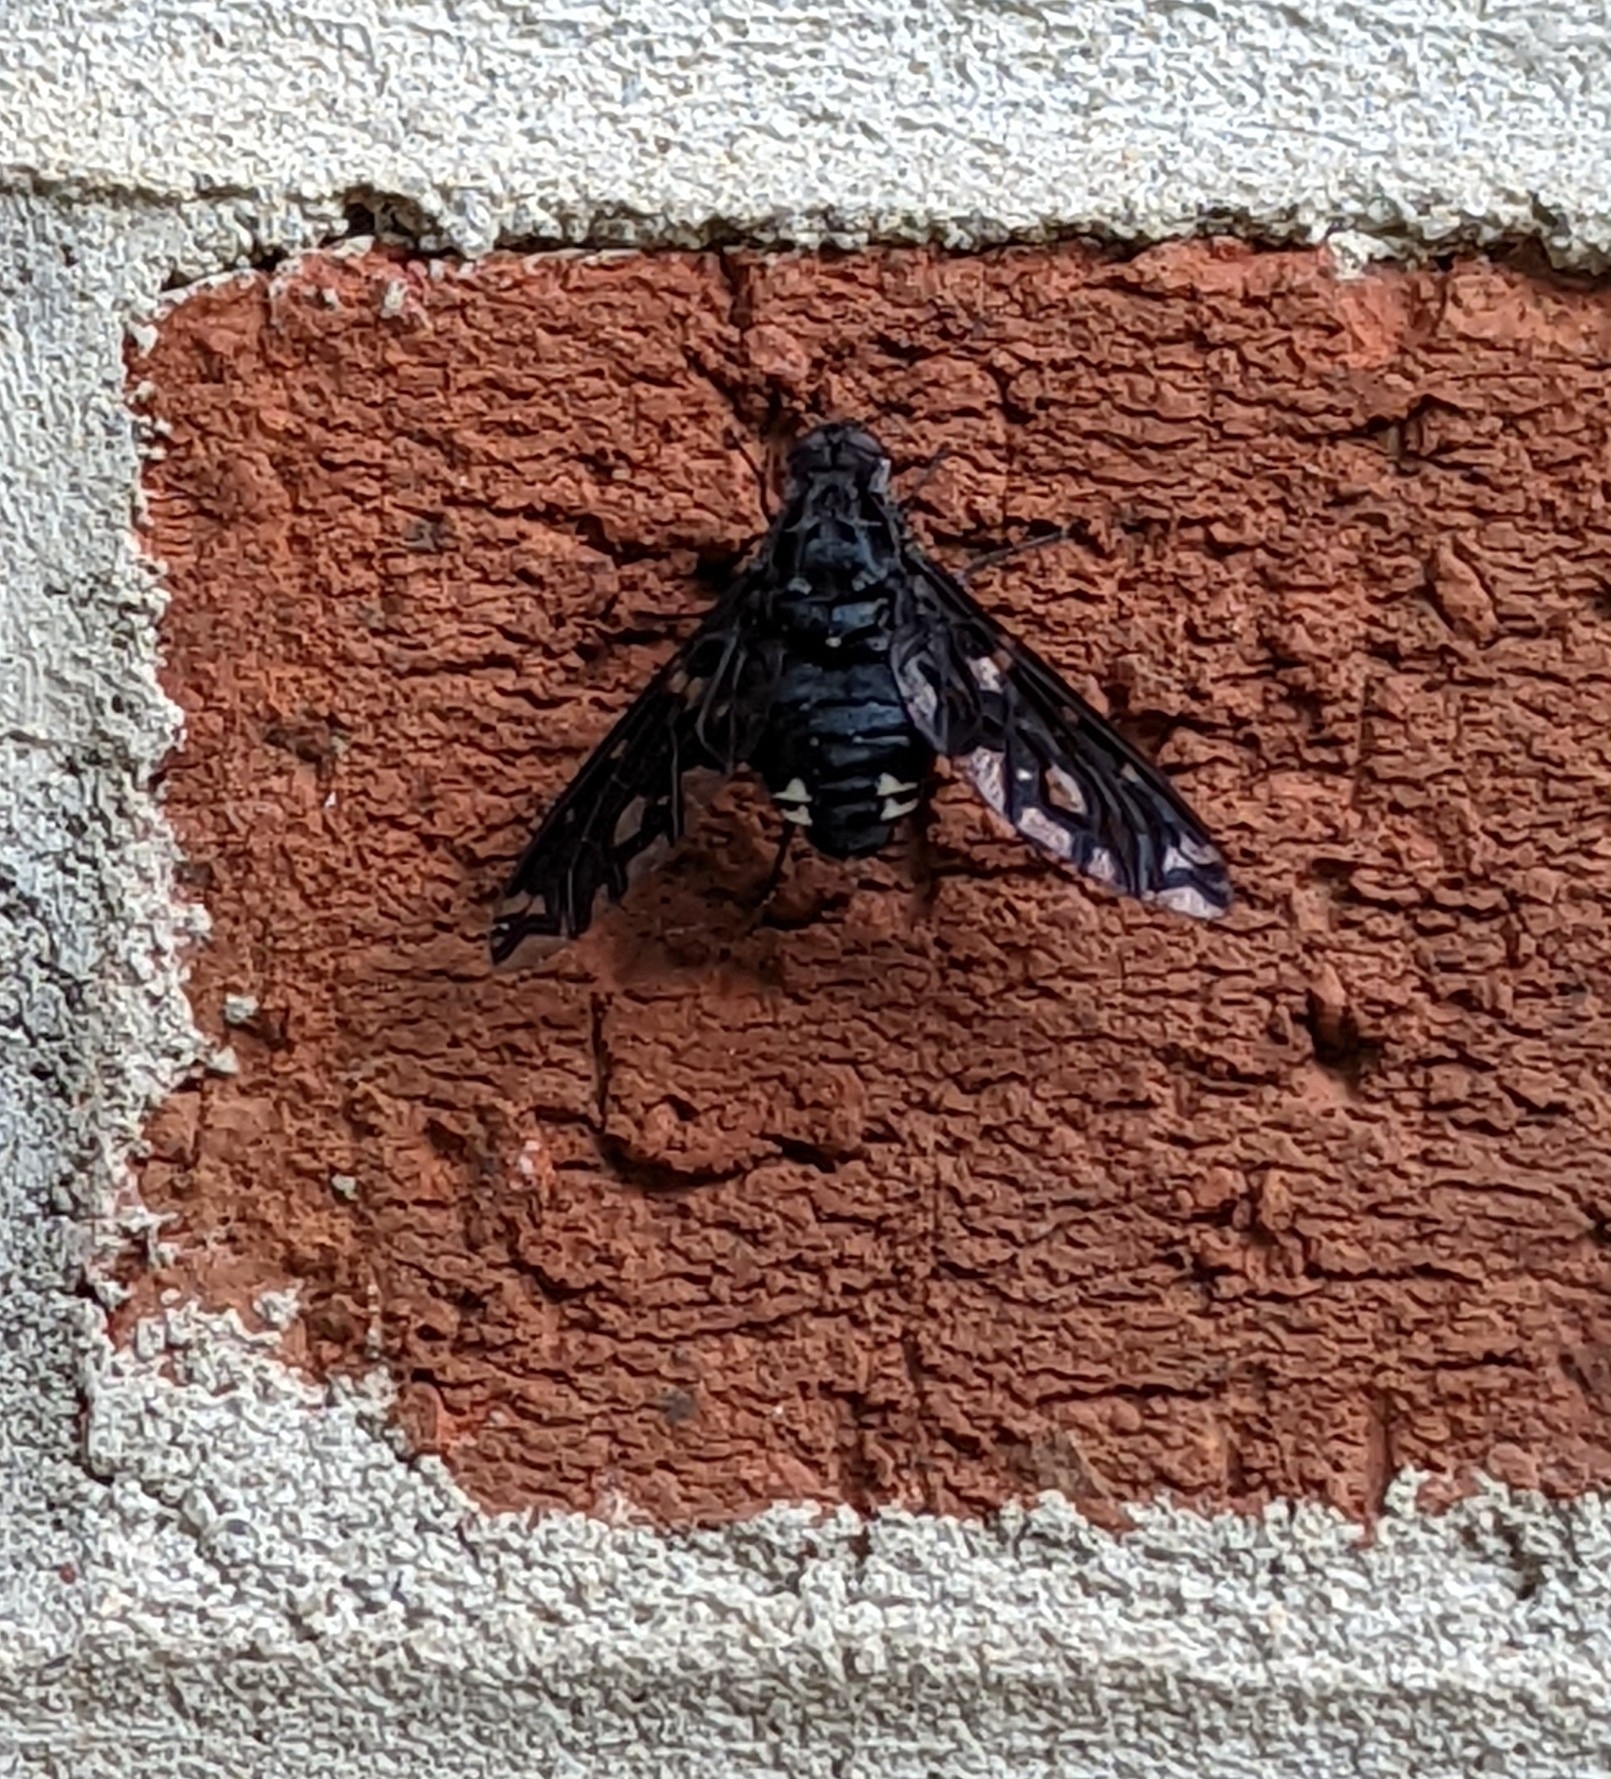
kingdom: Animalia
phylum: Arthropoda
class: Insecta
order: Diptera
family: Bombyliidae
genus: Xenox
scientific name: Xenox tigrinus
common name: Tiger bee fly
